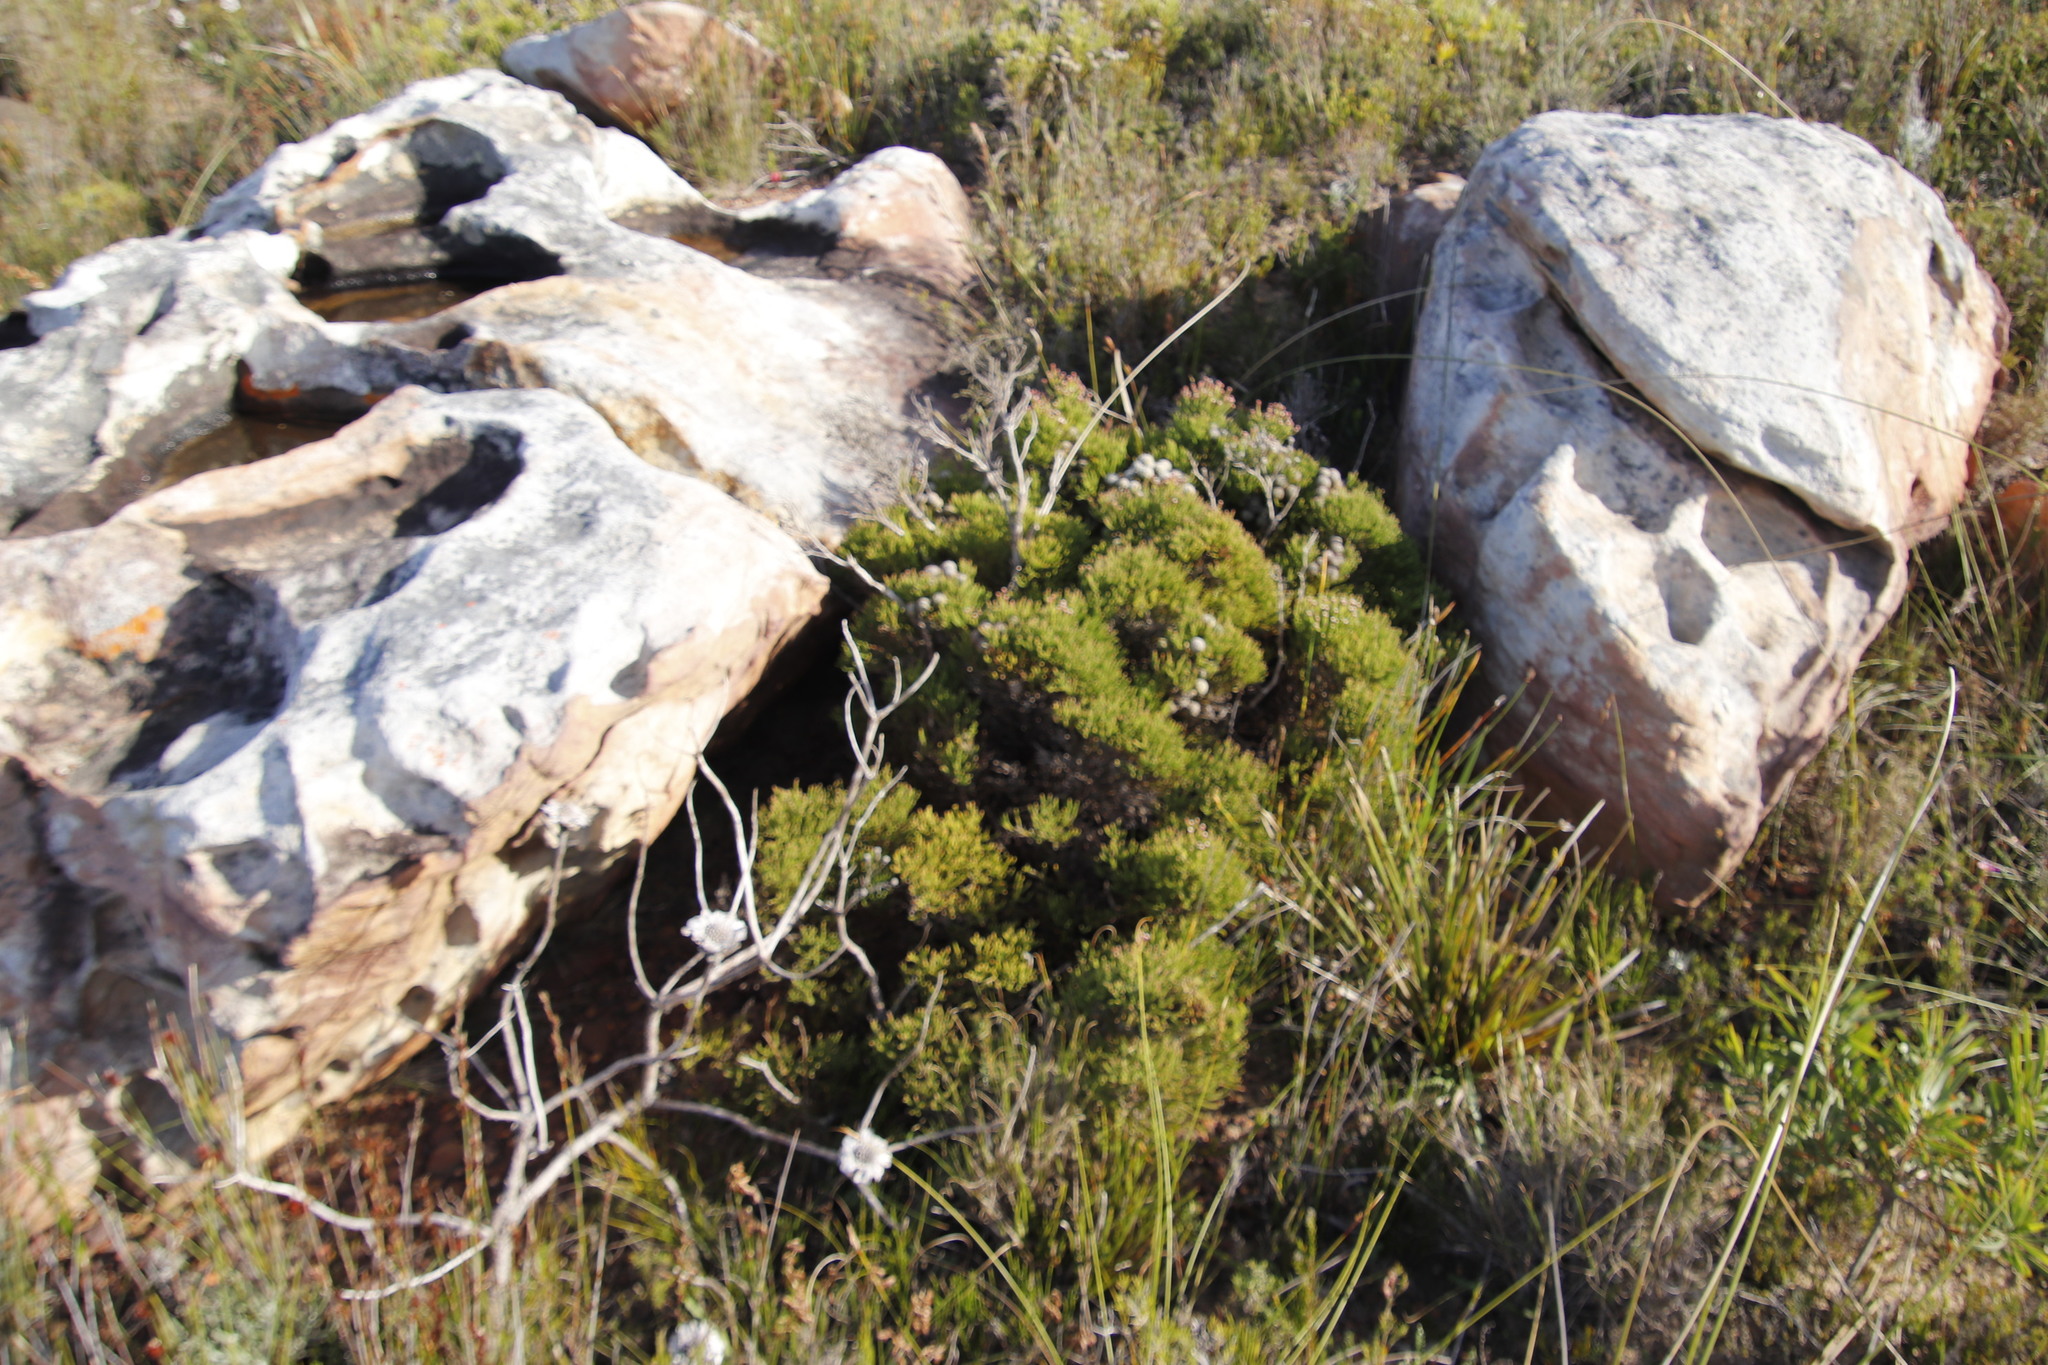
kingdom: Plantae
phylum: Tracheophyta
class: Magnoliopsida
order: Bruniales
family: Bruniaceae
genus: Brunia
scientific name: Brunia noduliflora
